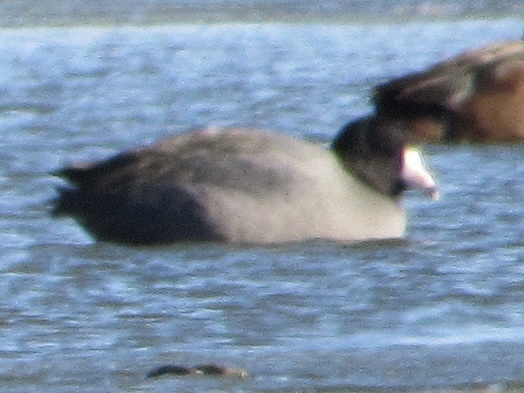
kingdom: Animalia
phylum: Chordata
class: Aves
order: Gruiformes
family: Rallidae
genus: Fulica
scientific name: Fulica americana
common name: American coot
